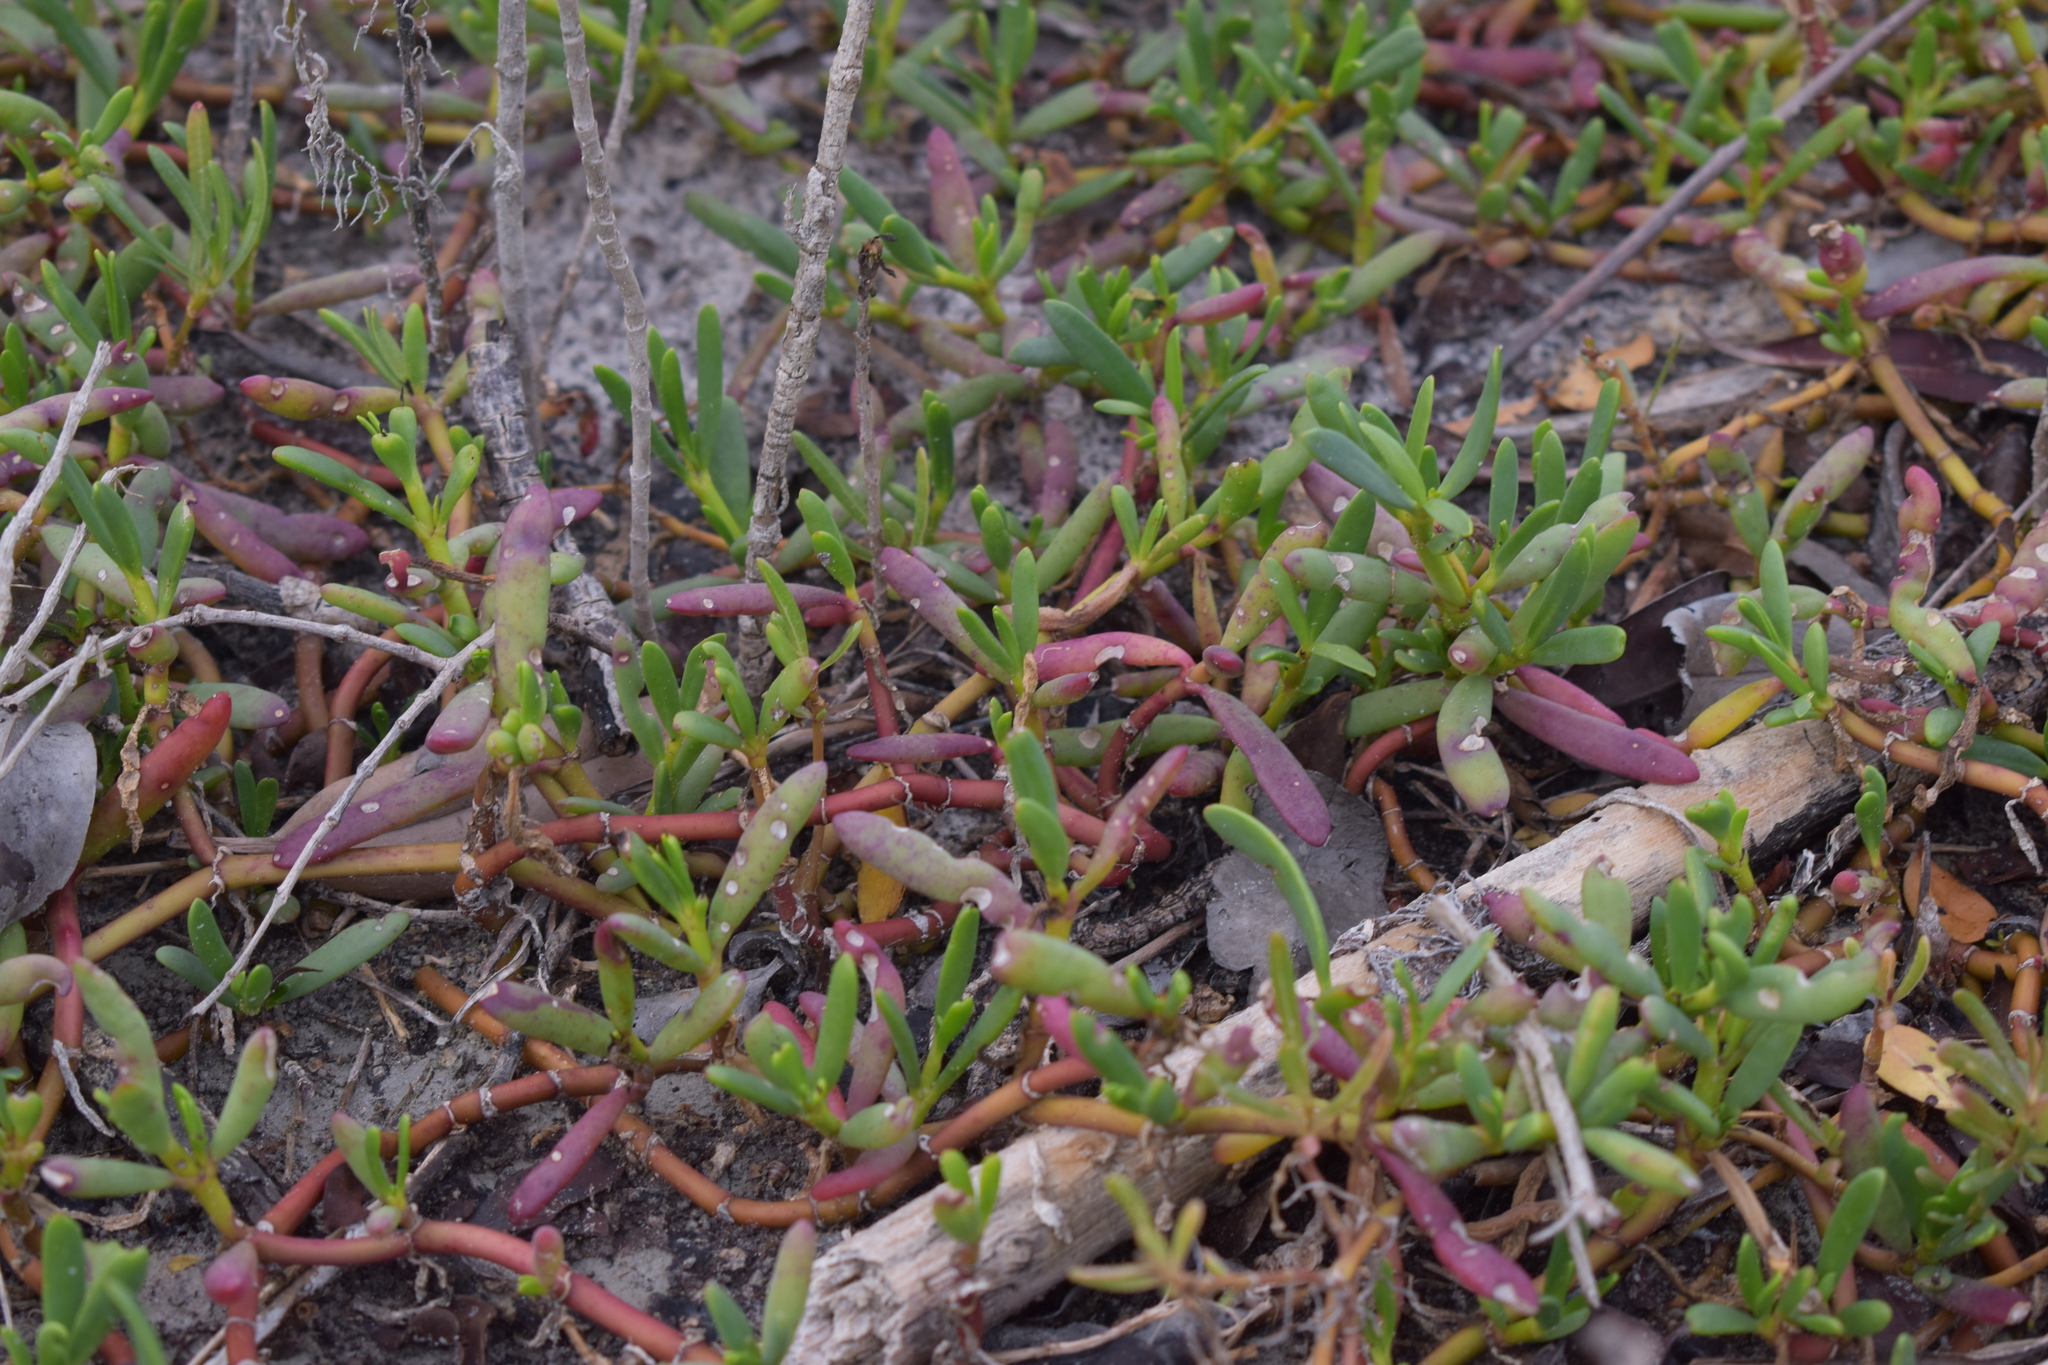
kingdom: Plantae
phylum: Tracheophyta
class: Magnoliopsida
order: Caryophyllales
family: Aizoaceae
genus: Sesuvium
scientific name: Sesuvium portulacastrum
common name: Sea-purslane
